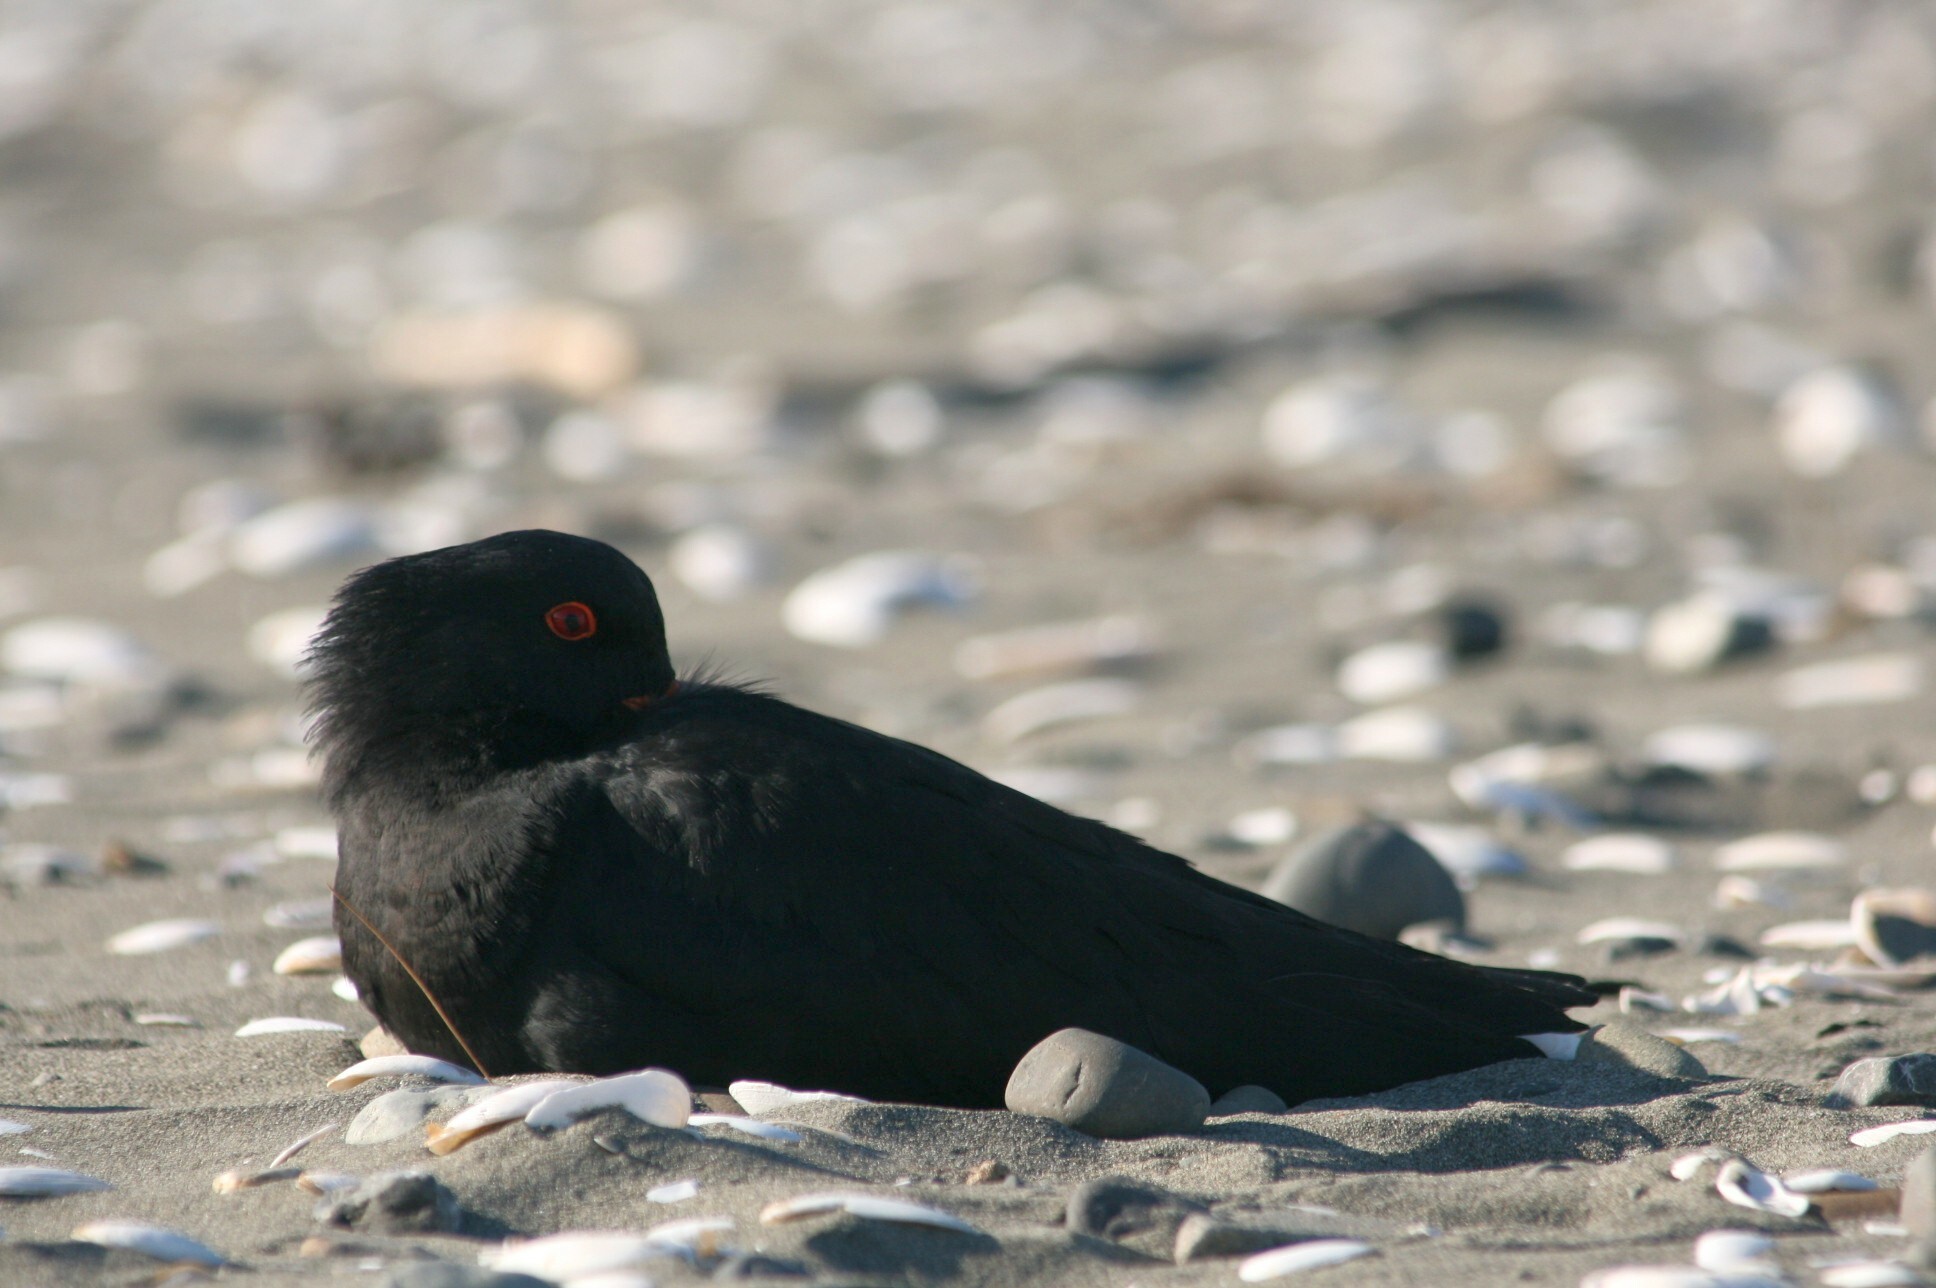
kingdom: Animalia
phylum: Chordata
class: Aves
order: Charadriiformes
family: Haematopodidae
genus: Haematopus
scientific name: Haematopus unicolor
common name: Variable oystercatcher
